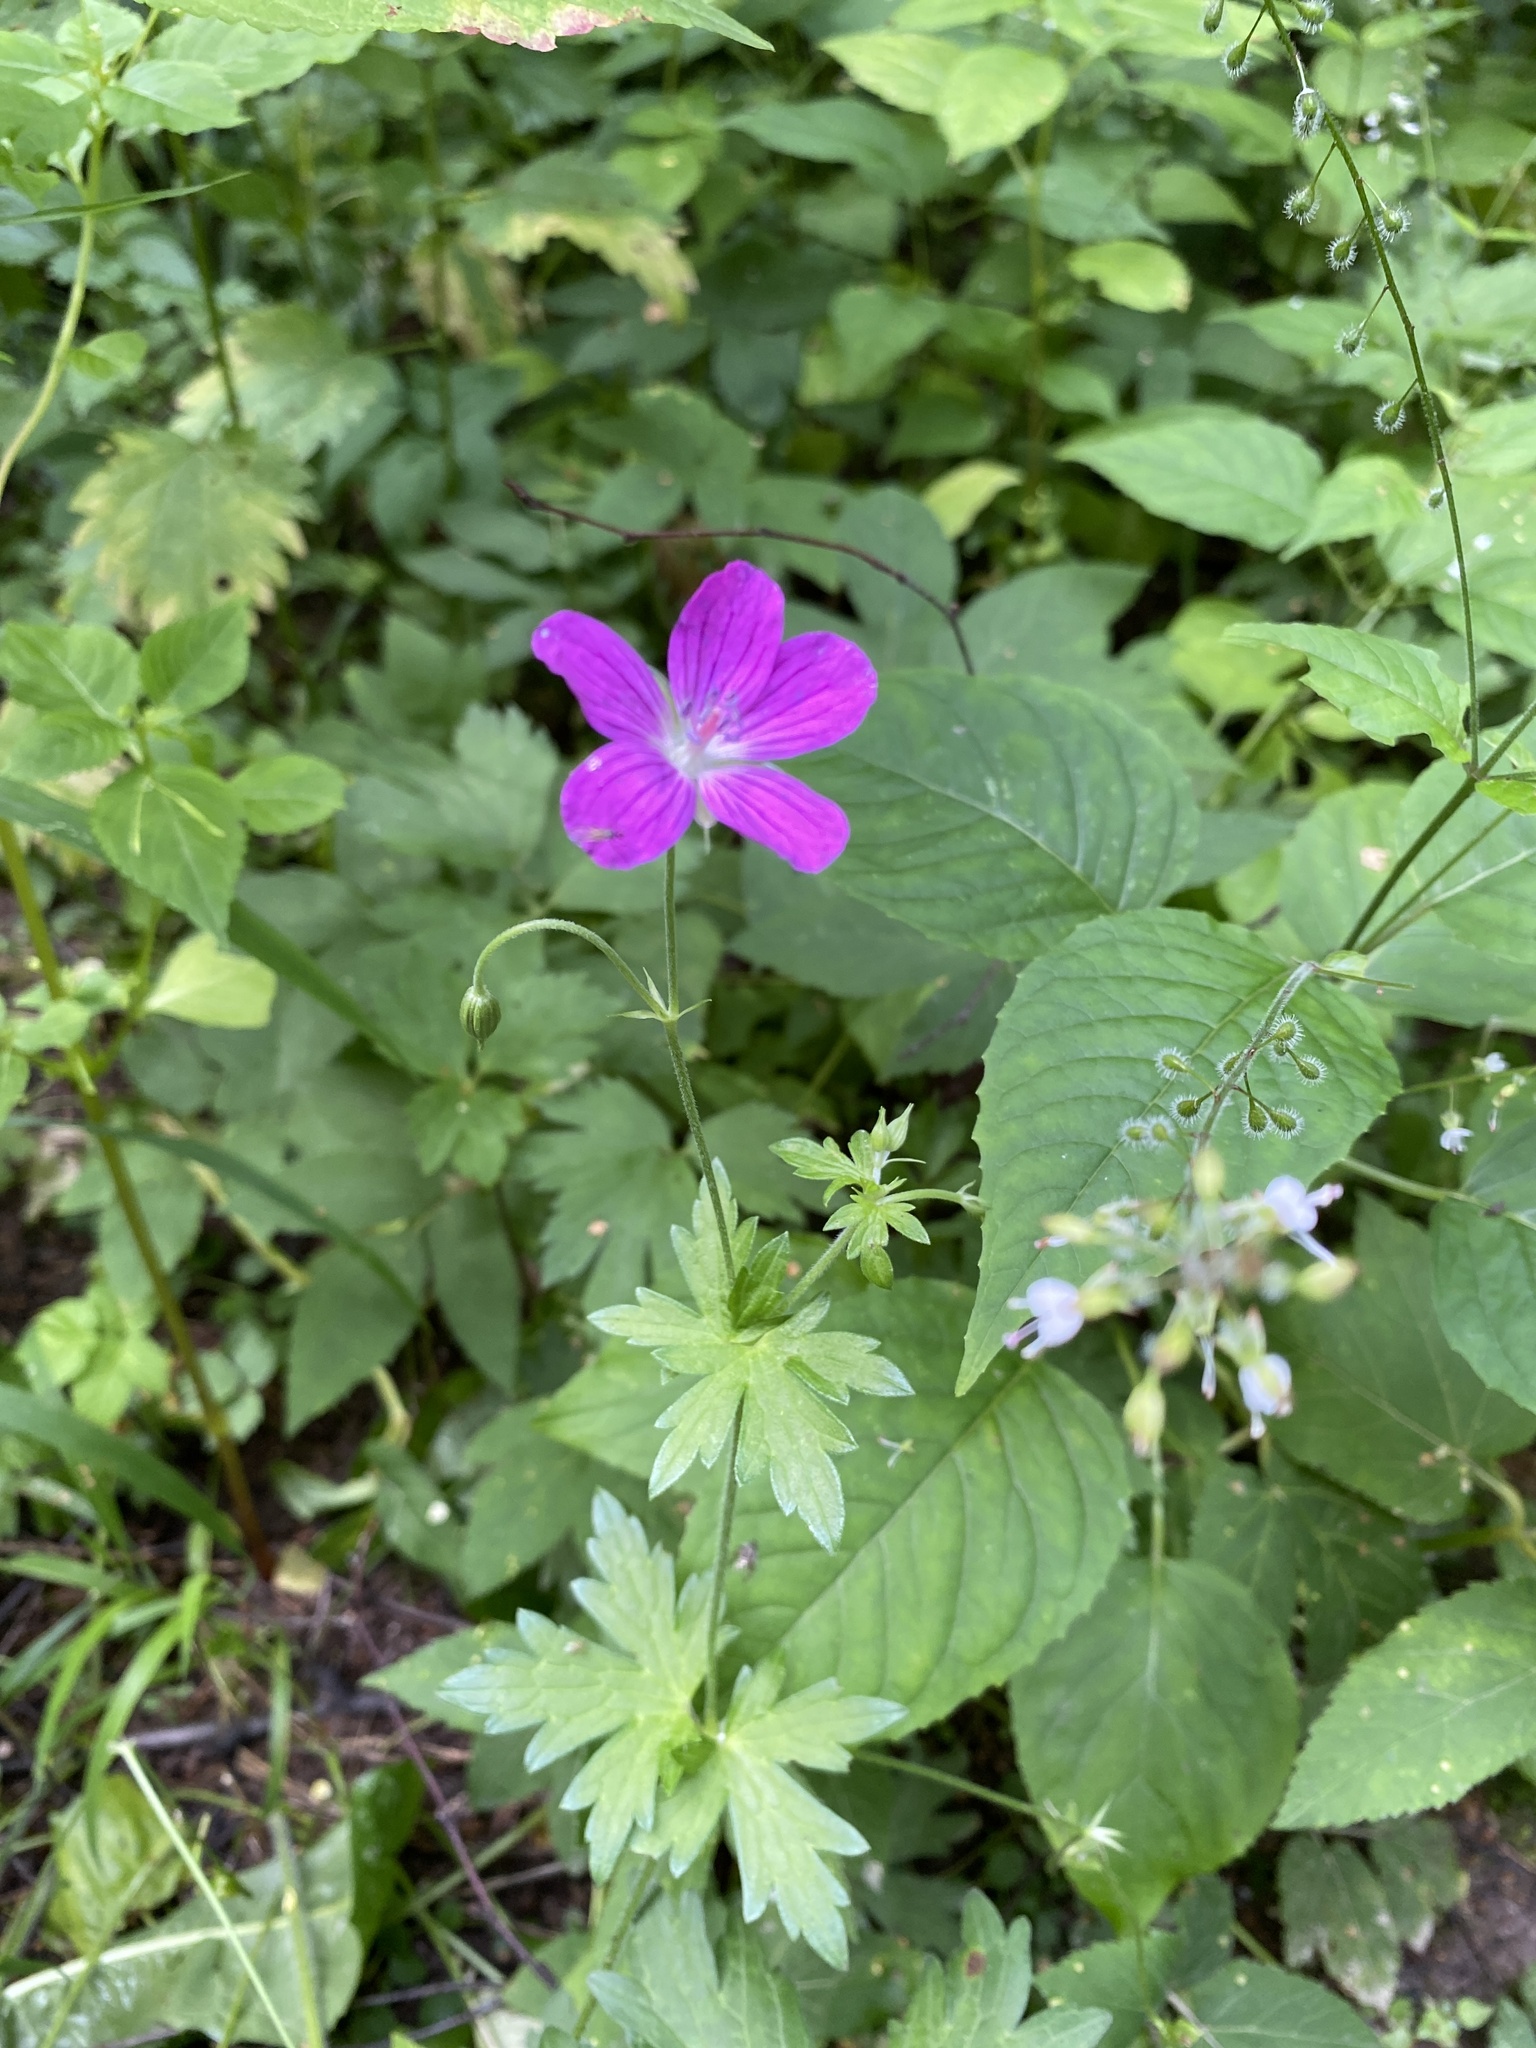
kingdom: Plantae
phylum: Tracheophyta
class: Magnoliopsida
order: Geraniales
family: Geraniaceae
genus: Geranium
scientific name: Geranium palustre
